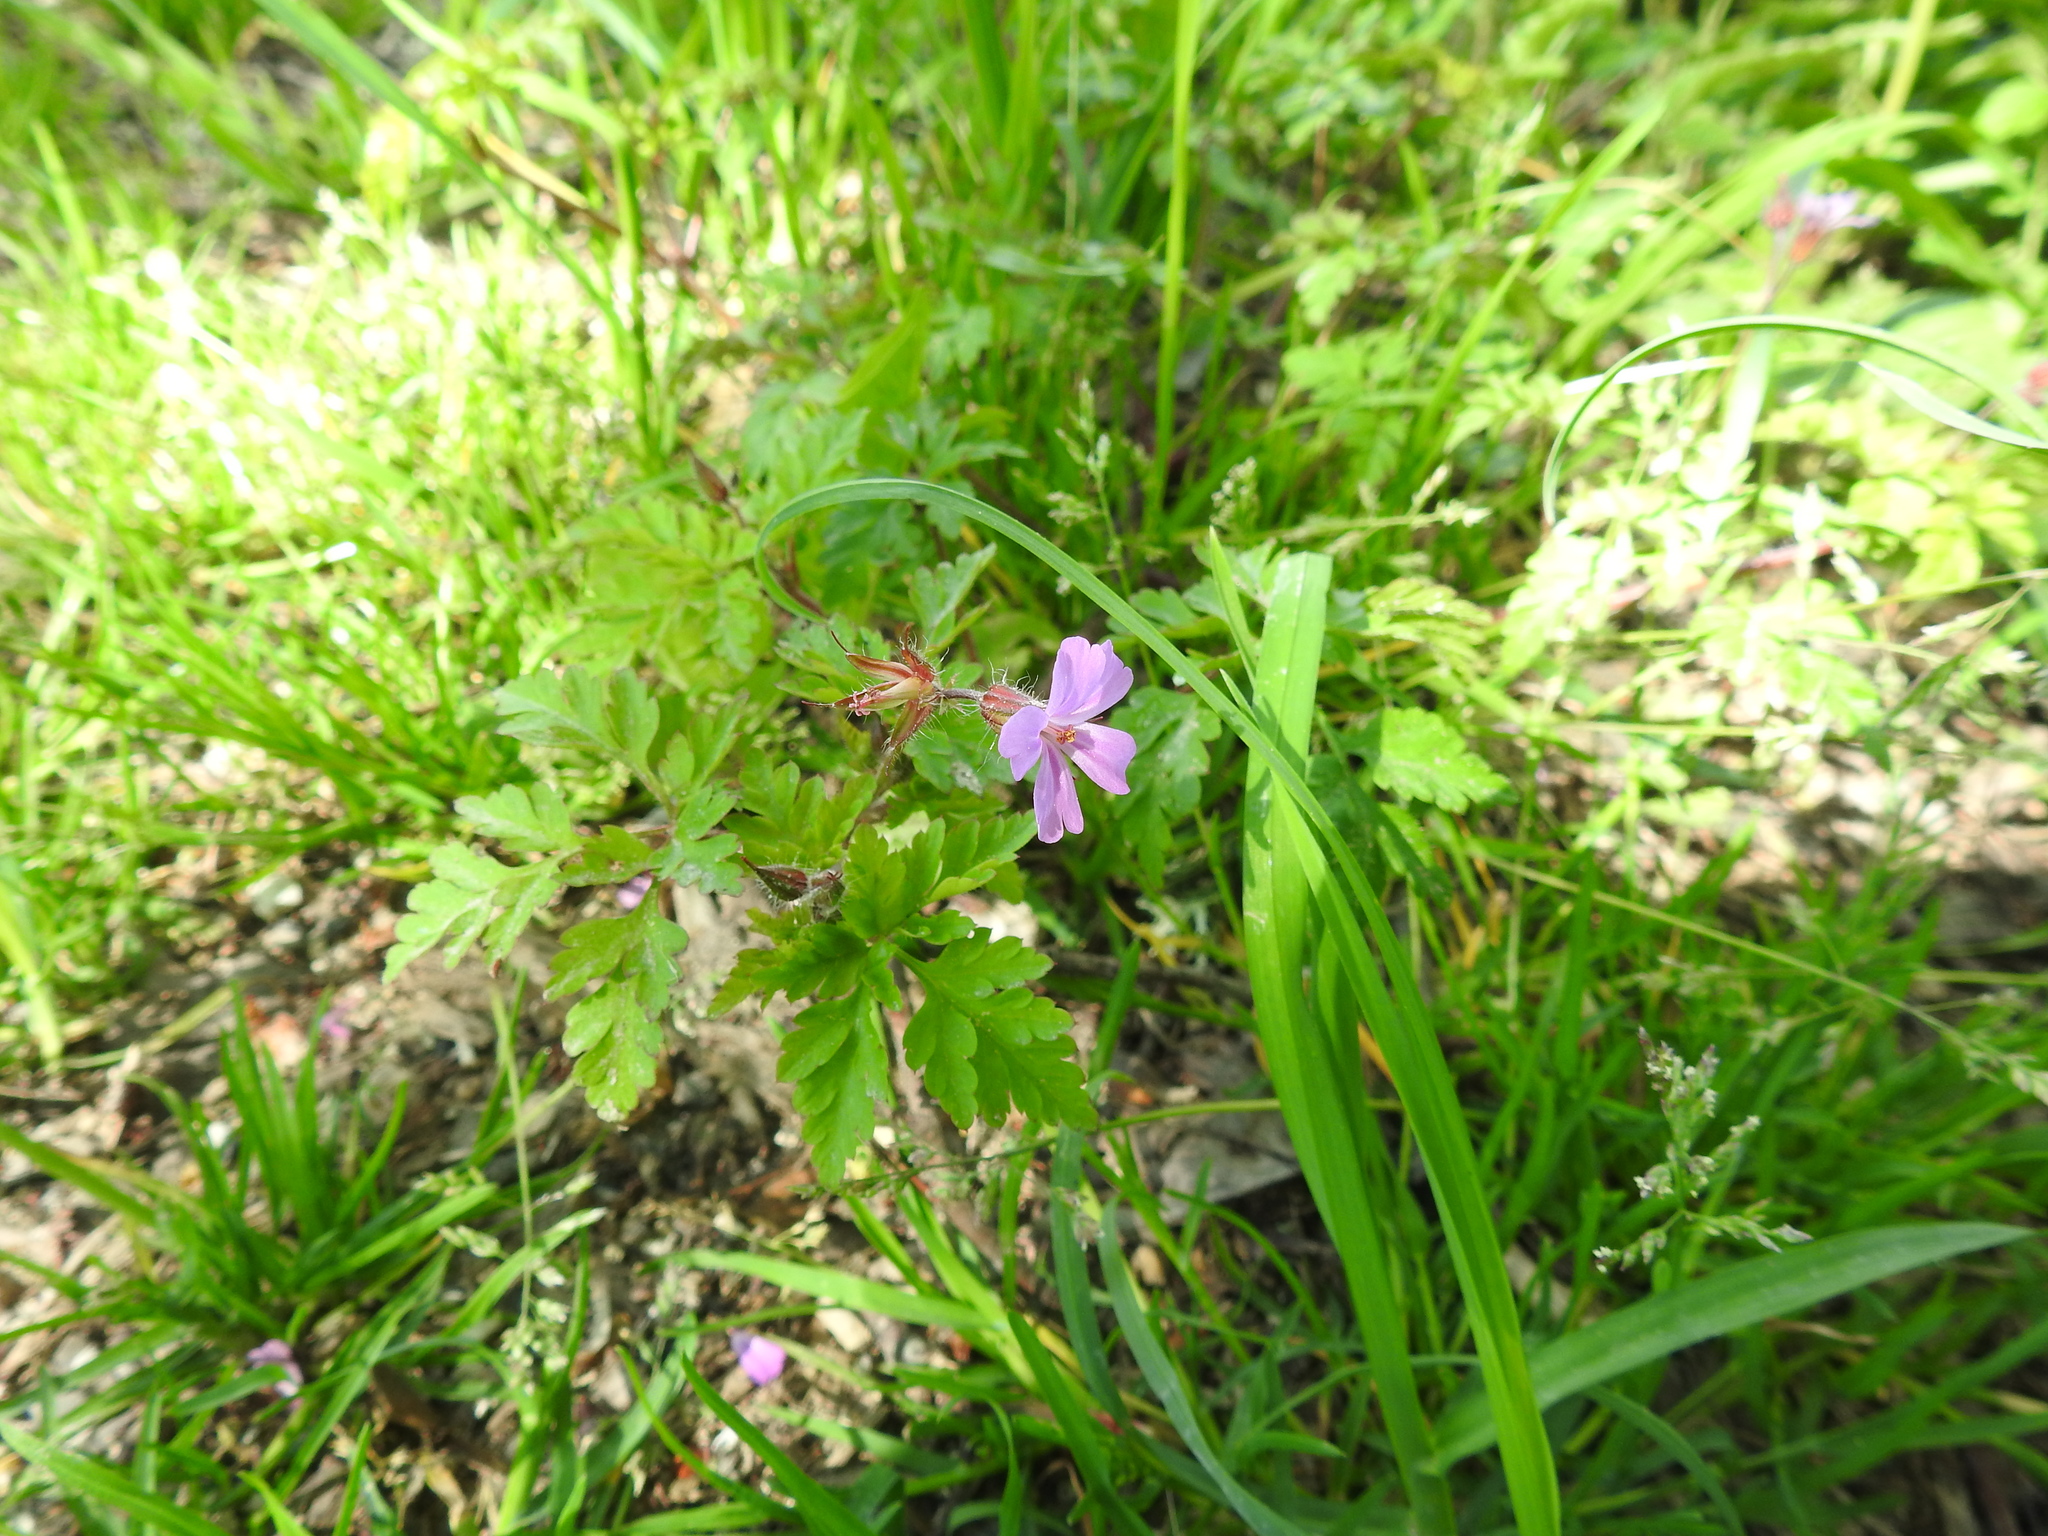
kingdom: Plantae
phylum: Tracheophyta
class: Magnoliopsida
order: Geraniales
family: Geraniaceae
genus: Geranium
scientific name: Geranium robertianum
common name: Herb-robert
